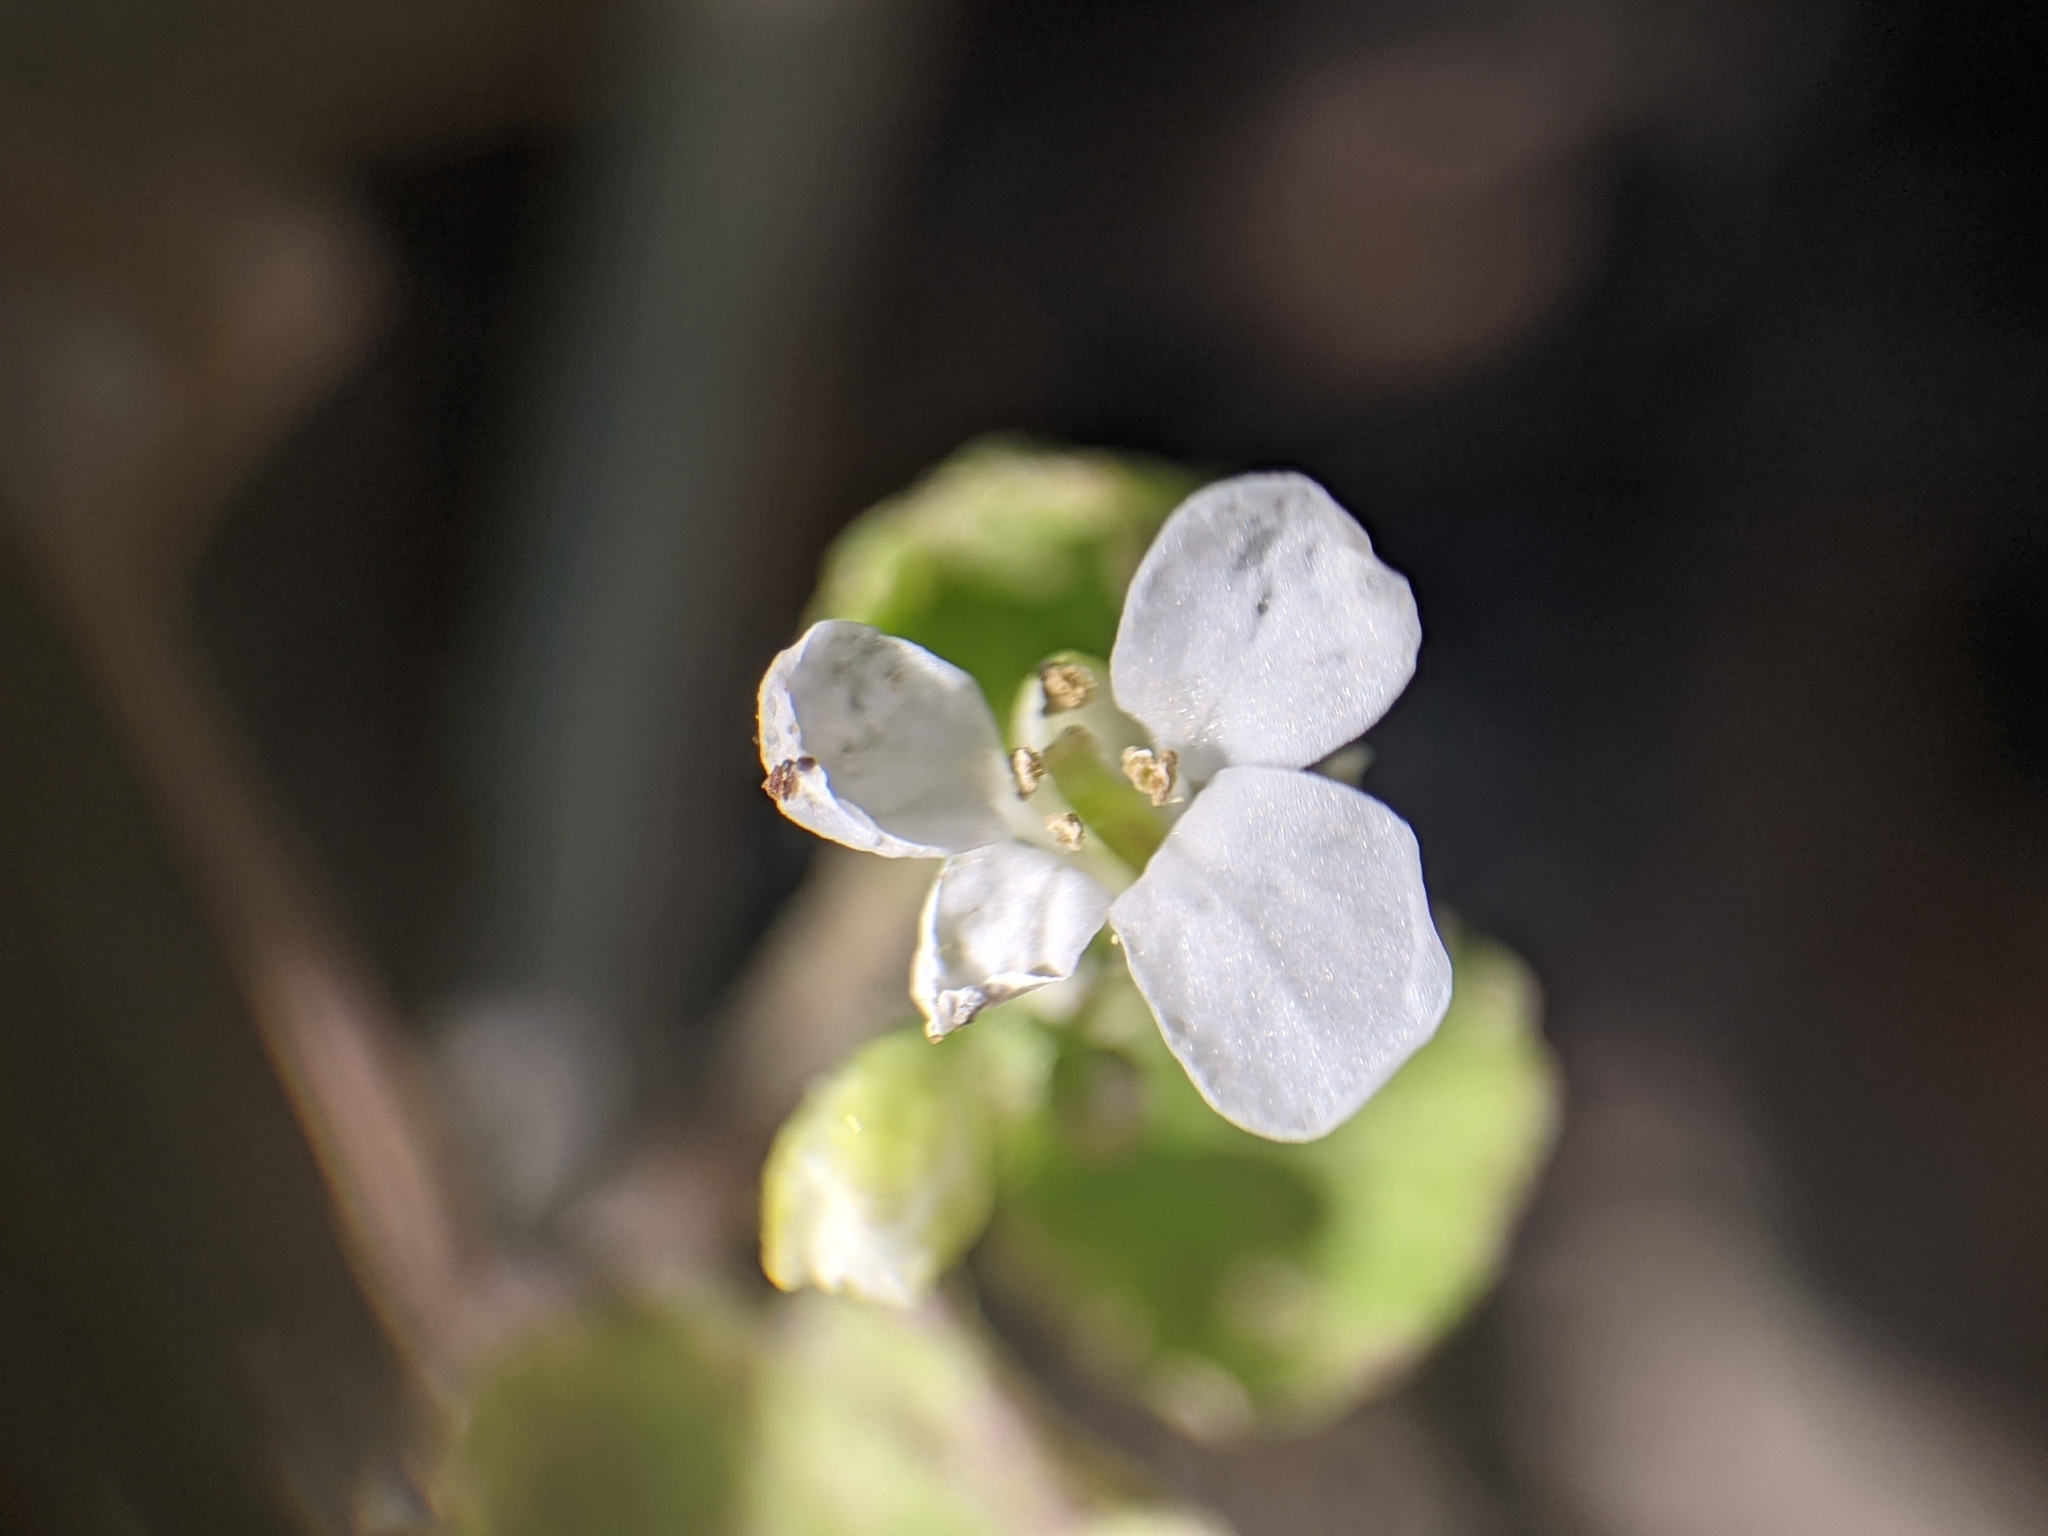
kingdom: Plantae
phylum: Tracheophyta
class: Magnoliopsida
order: Brassicales
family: Brassicaceae
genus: Hesperis
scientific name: Hesperis matronalis
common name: Dame's-violet
